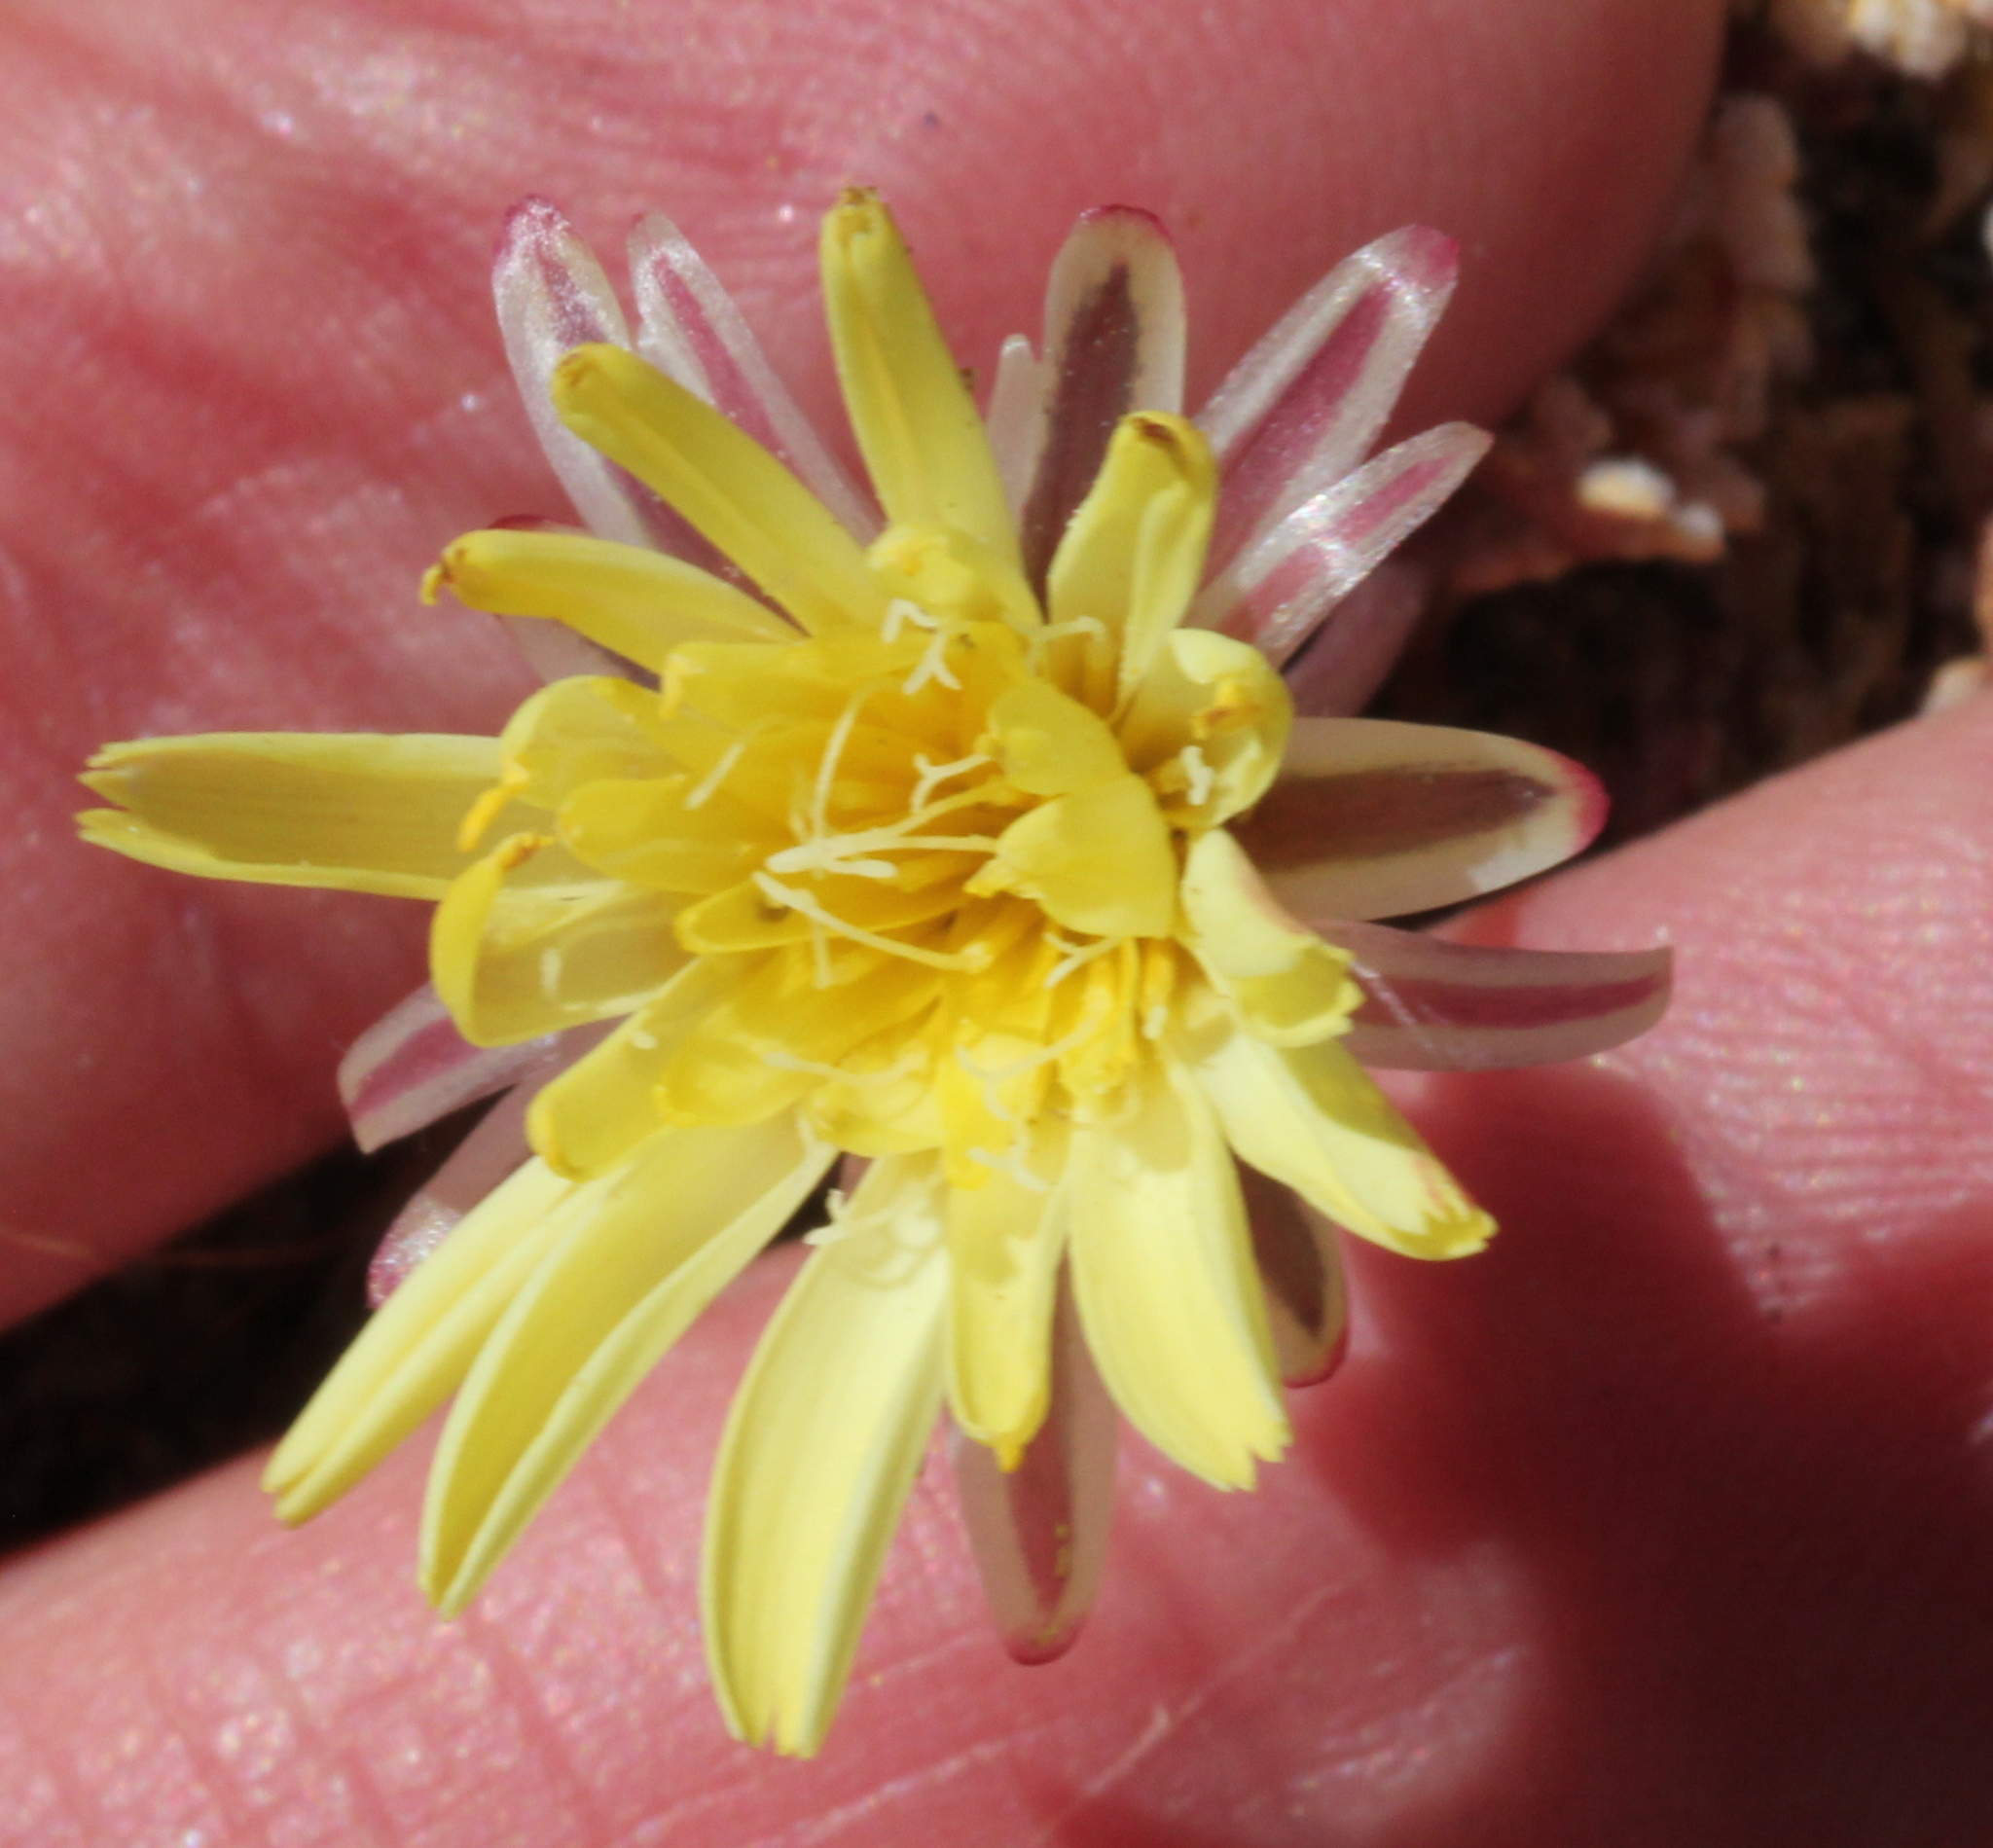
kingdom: Plantae
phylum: Tracheophyta
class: Magnoliopsida
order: Asterales
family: Asteraceae
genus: Anisocoma
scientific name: Anisocoma acaulis
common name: Scalebud
